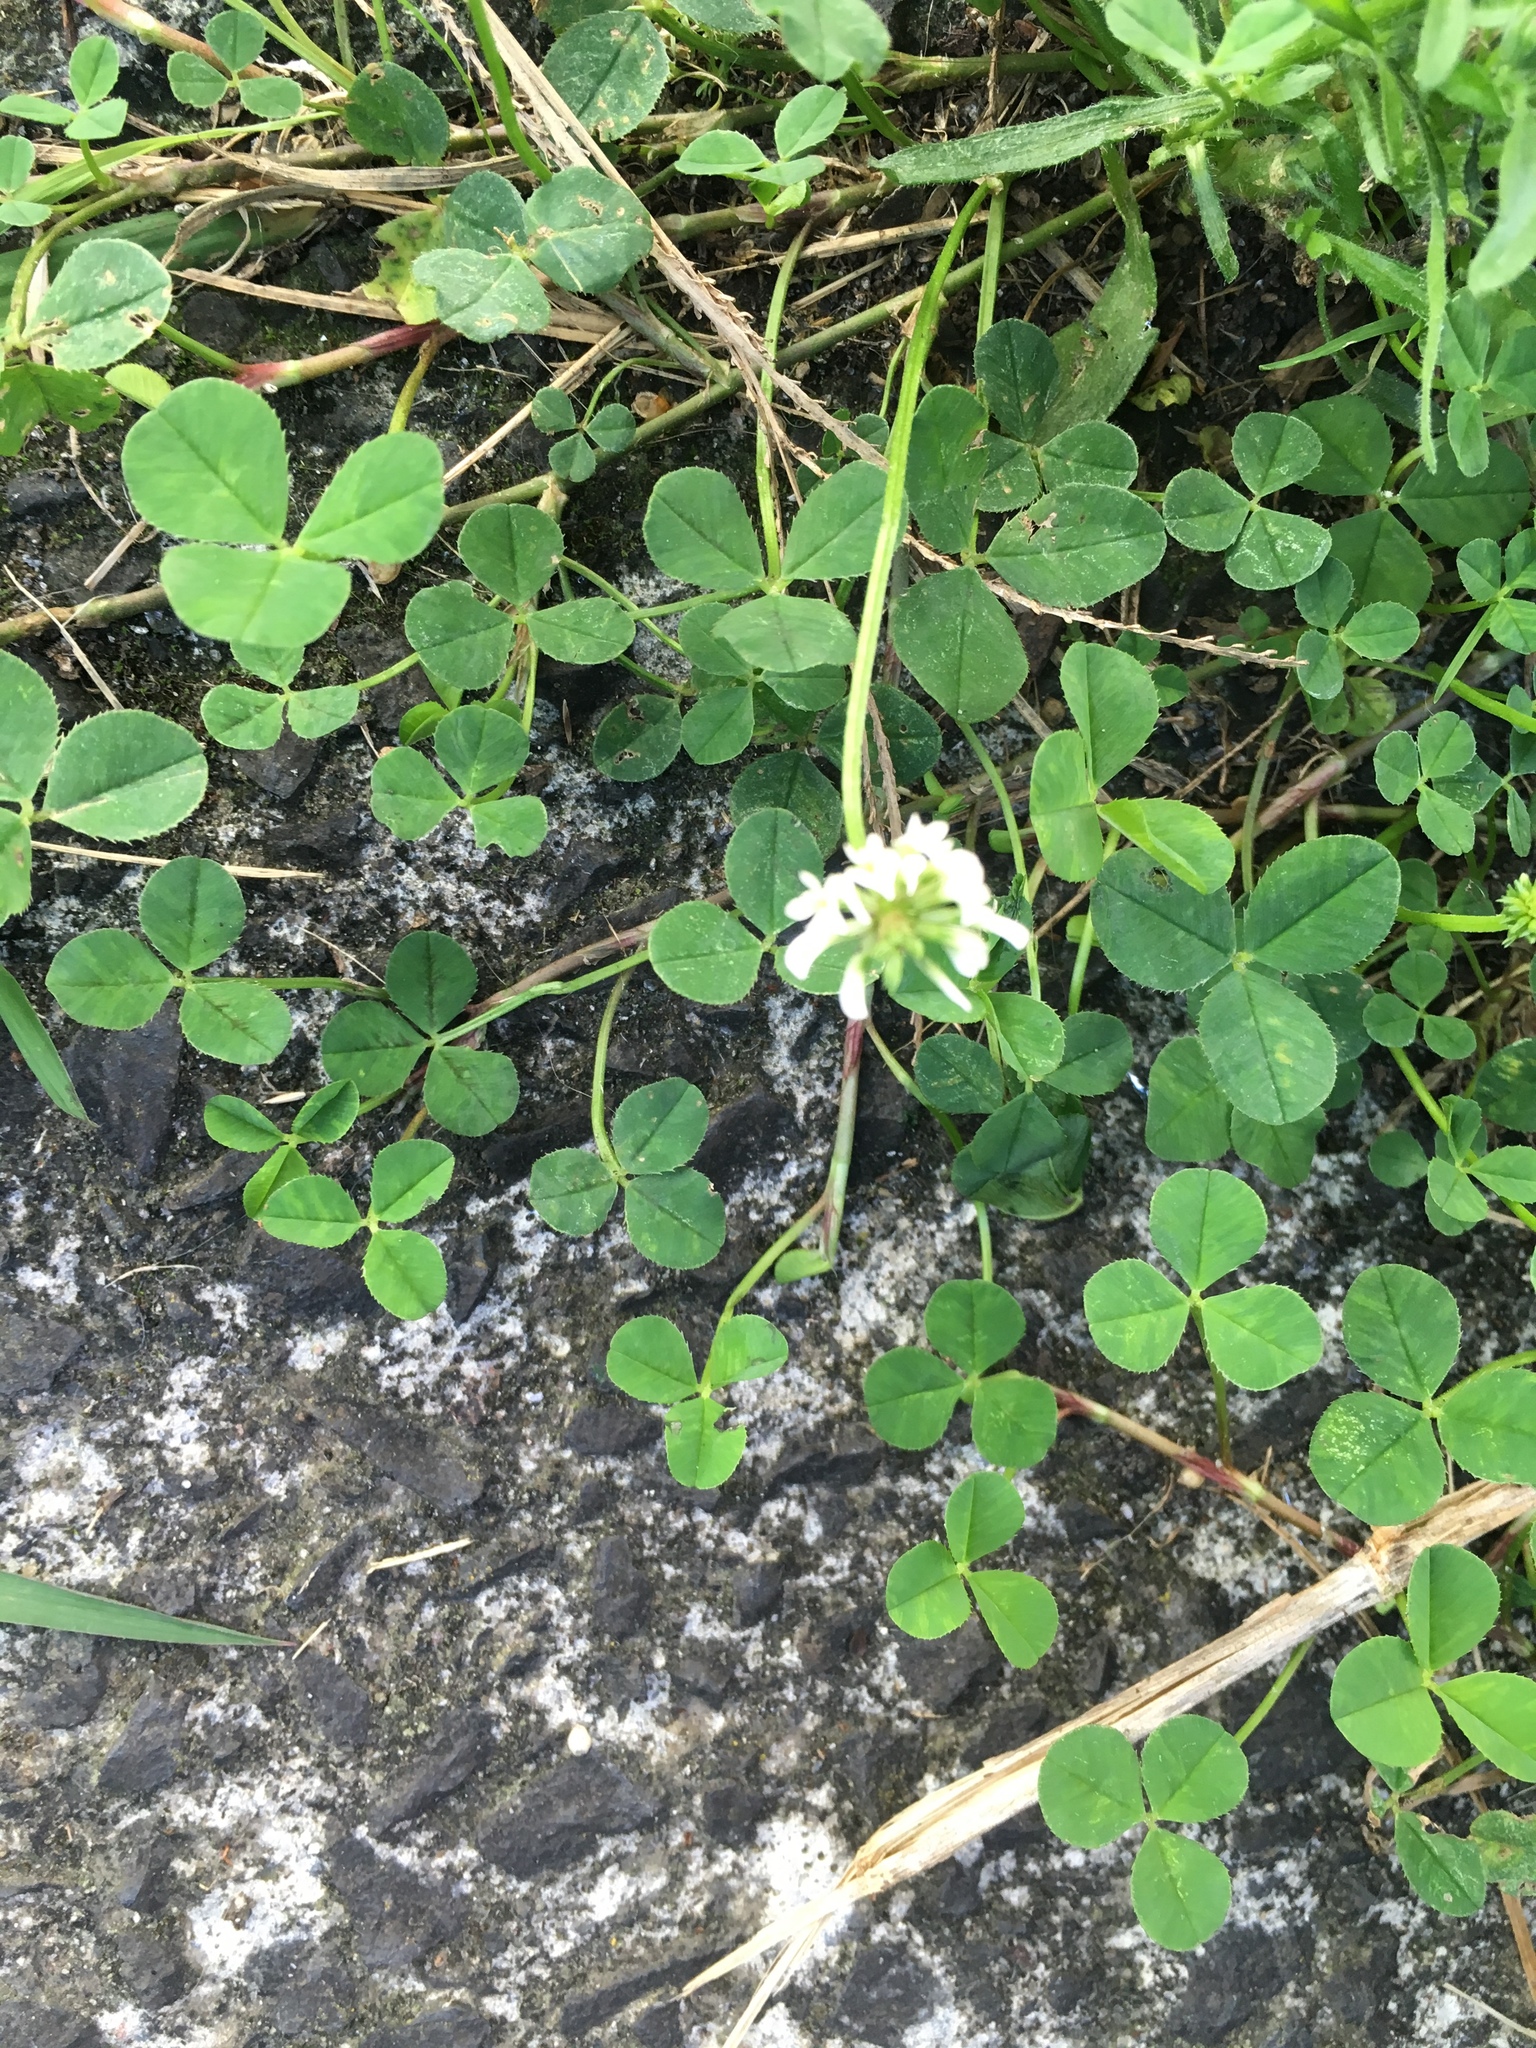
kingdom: Plantae
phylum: Tracheophyta
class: Magnoliopsida
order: Fabales
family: Fabaceae
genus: Trifolium
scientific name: Trifolium repens
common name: White clover
